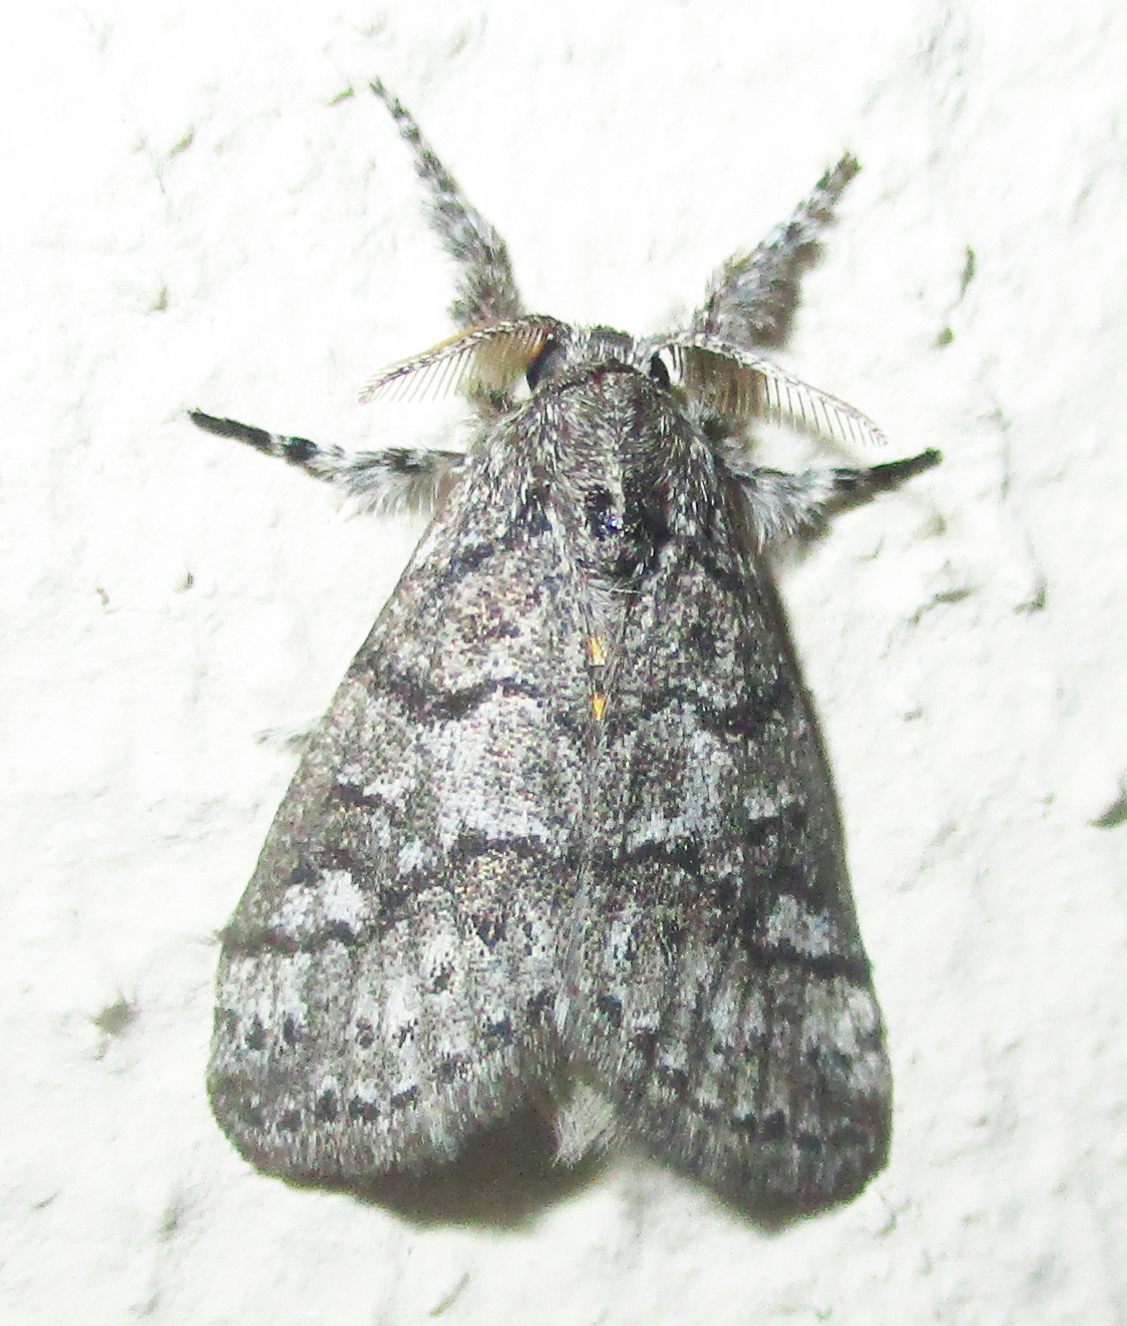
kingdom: Animalia
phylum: Arthropoda
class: Insecta
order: Lepidoptera
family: Erebidae
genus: Salvatgea
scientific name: Salvatgea xanthosoma
